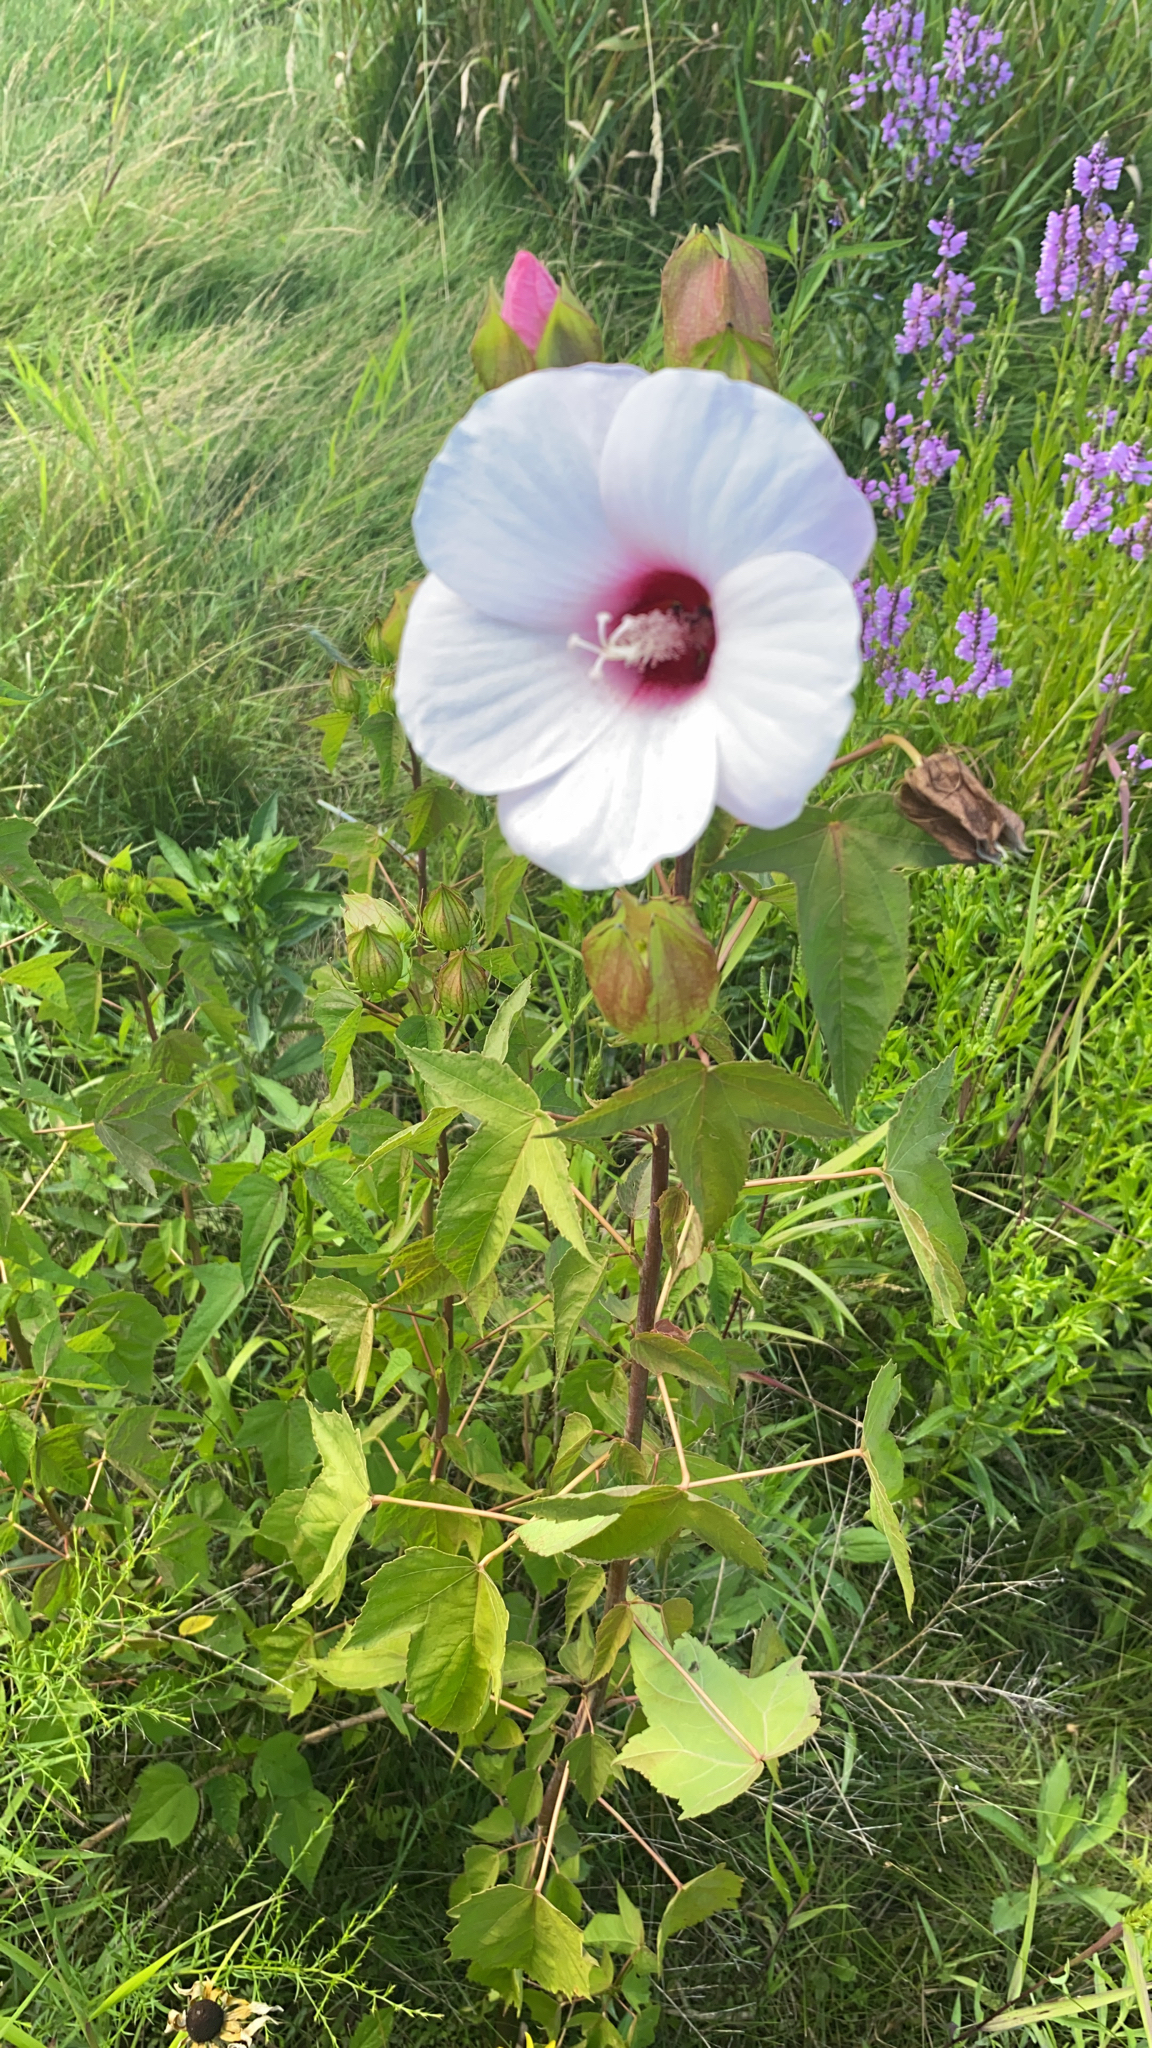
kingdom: Plantae
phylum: Tracheophyta
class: Magnoliopsida
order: Malvales
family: Malvaceae
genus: Hibiscus
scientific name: Hibiscus laevis
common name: Scarlet rose-mallow
